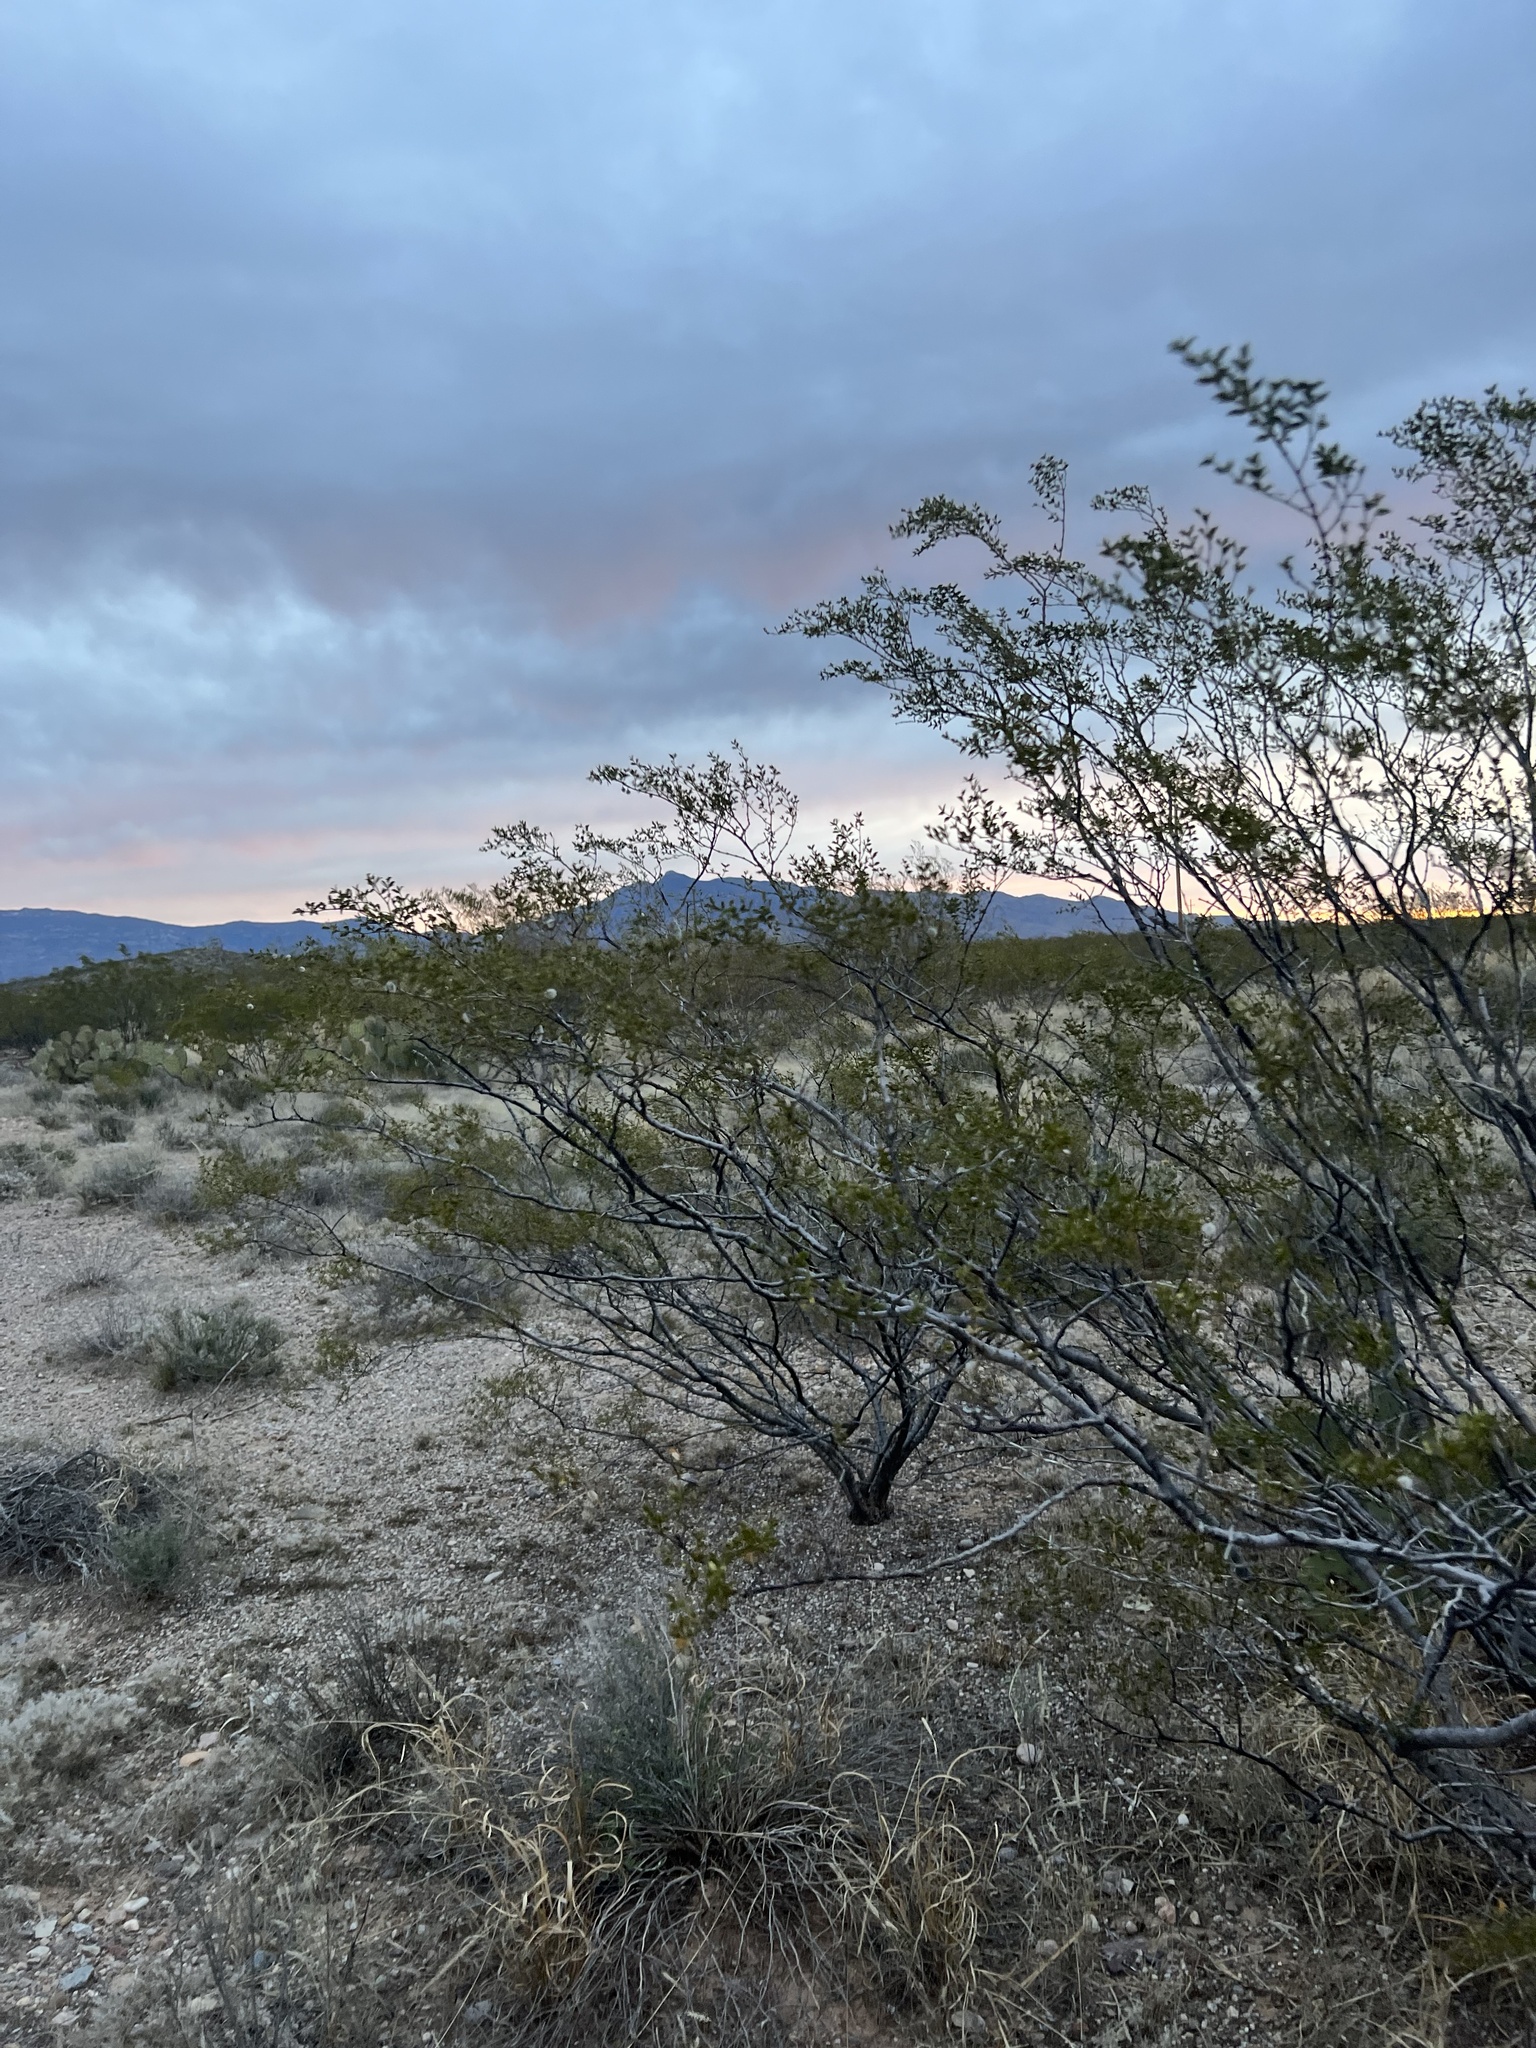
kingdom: Plantae
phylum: Tracheophyta
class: Magnoliopsida
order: Zygophyllales
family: Zygophyllaceae
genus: Larrea
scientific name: Larrea tridentata
